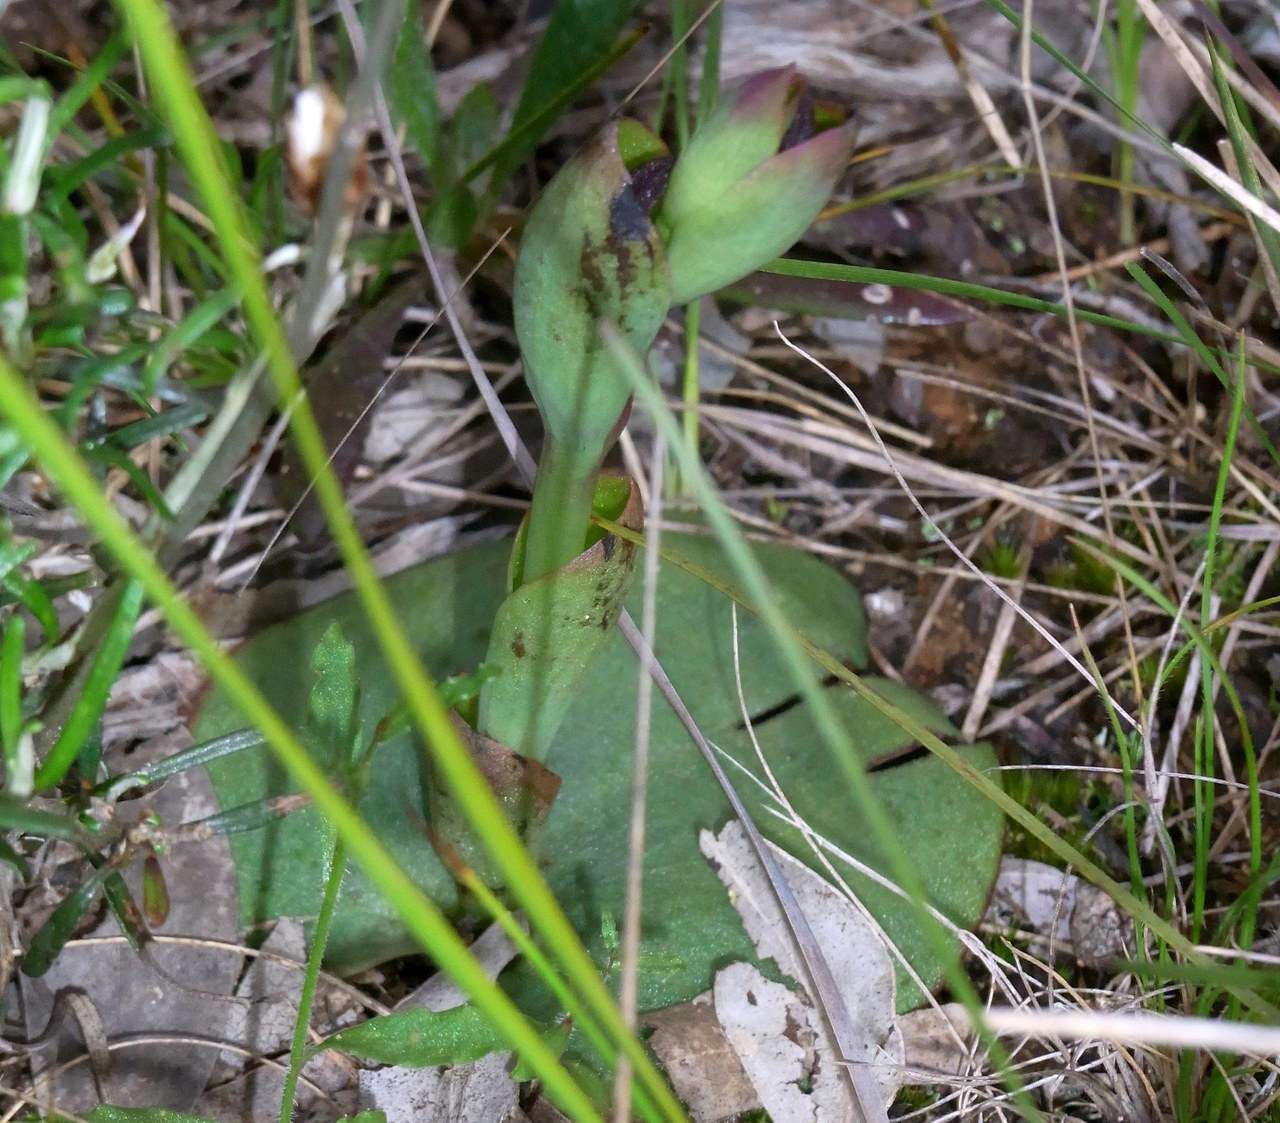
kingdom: Plantae
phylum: Tracheophyta
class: Liliopsida
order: Asparagales
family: Orchidaceae
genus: Pyrorchis
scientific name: Pyrorchis nigricans
